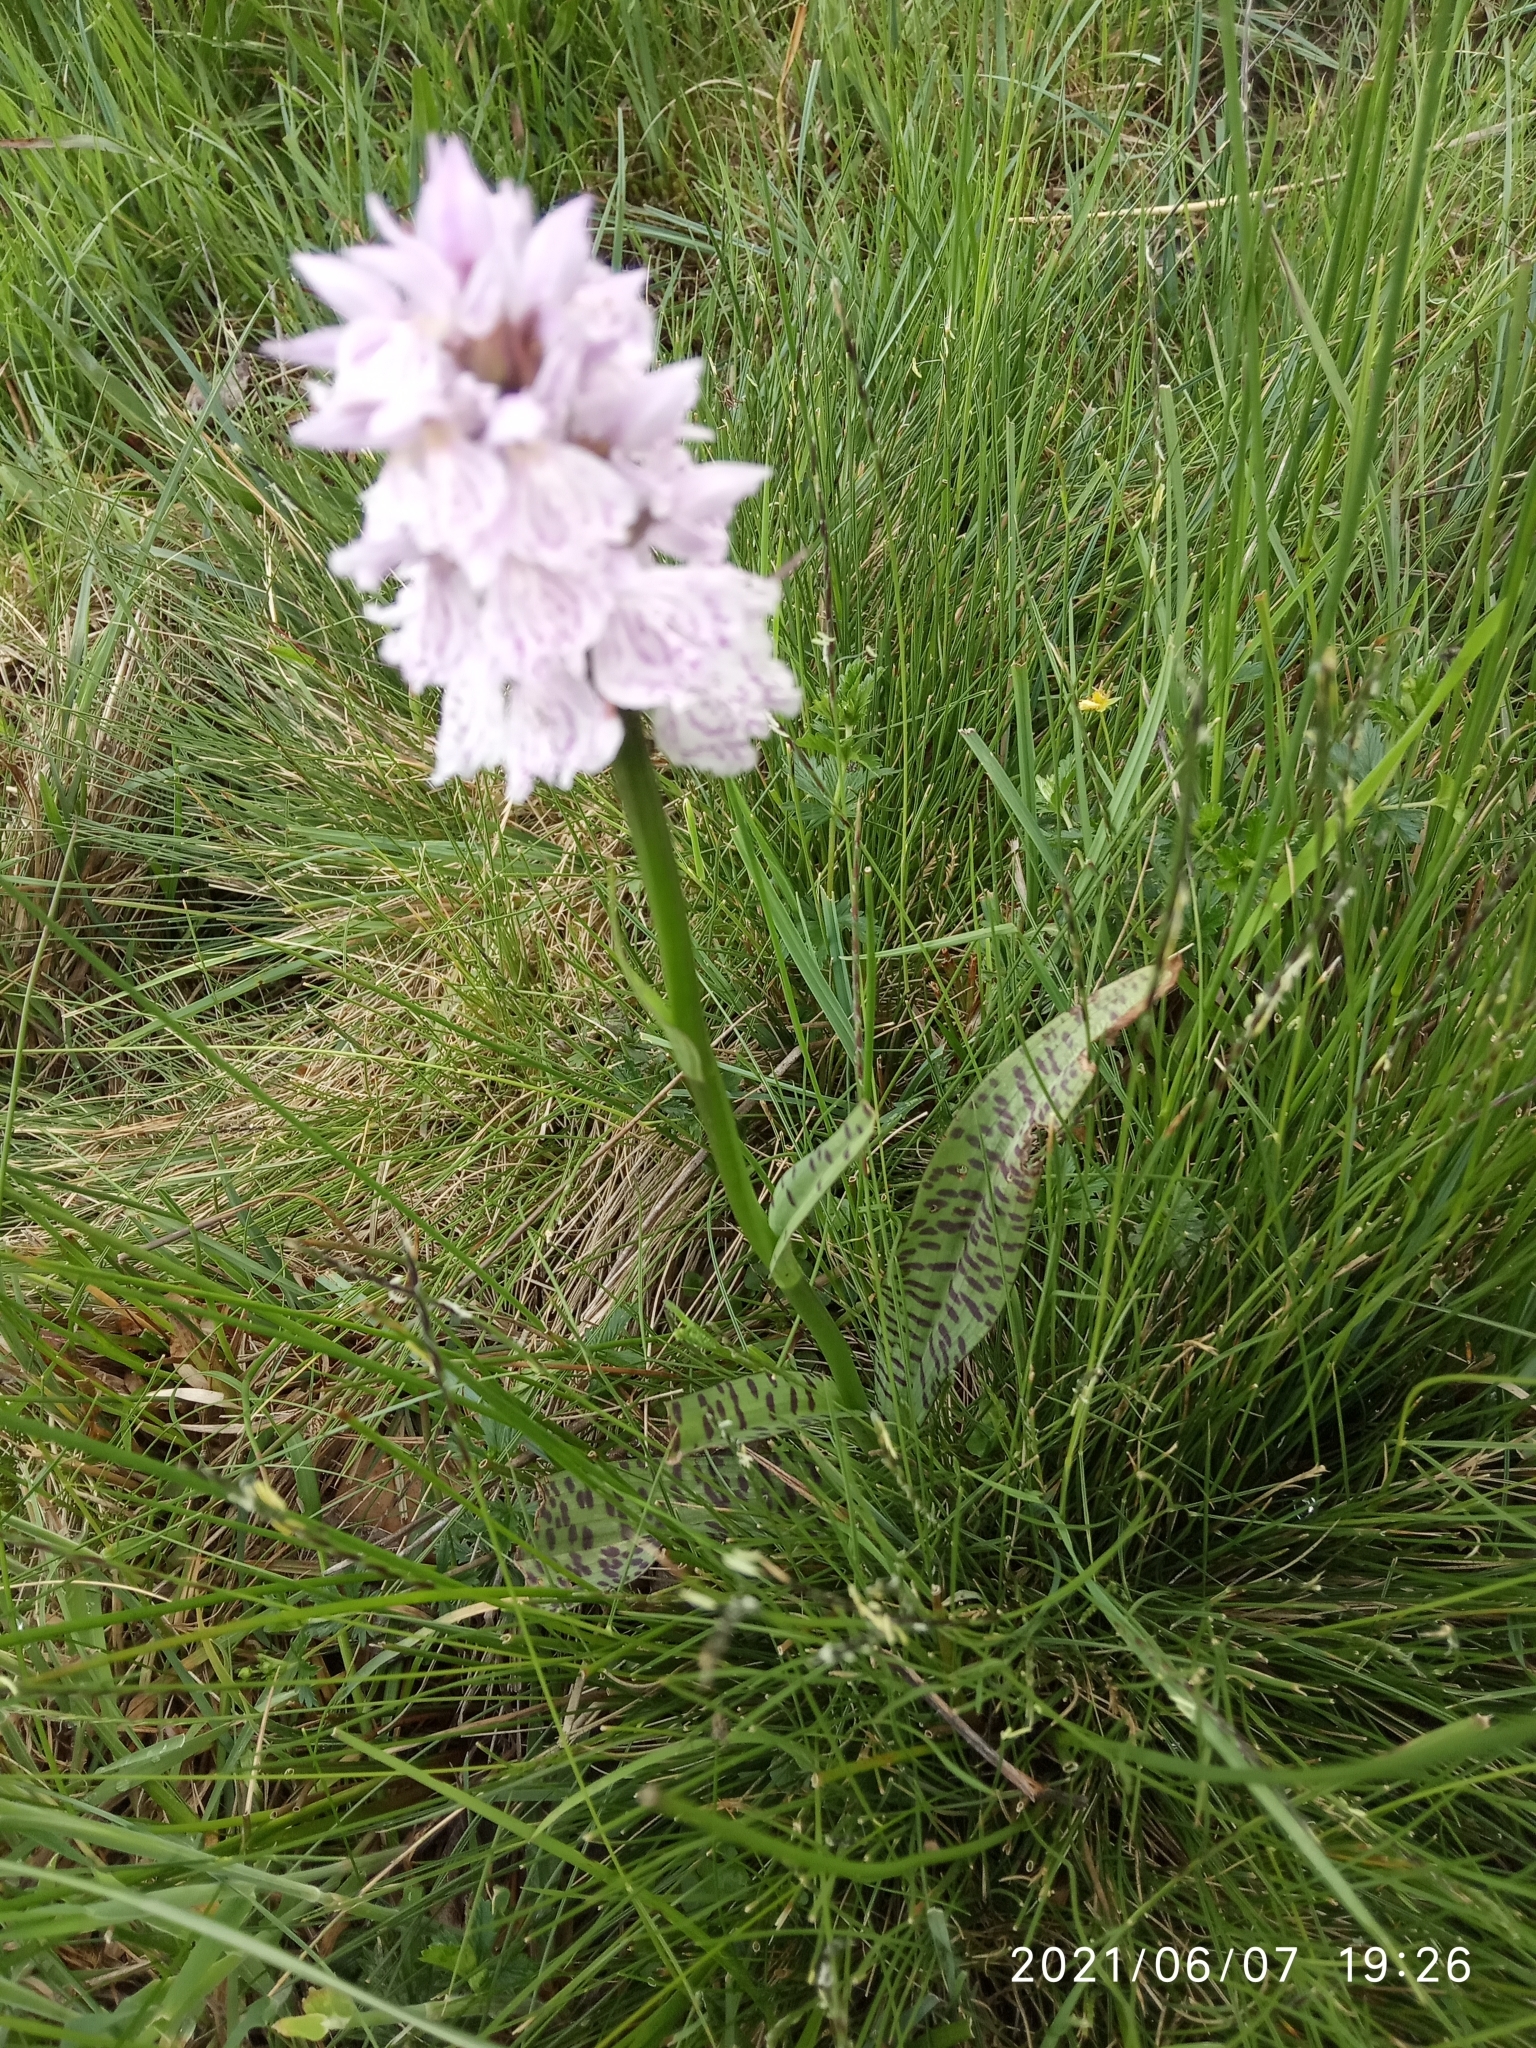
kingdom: Plantae
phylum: Tracheophyta
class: Liliopsida
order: Asparagales
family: Orchidaceae
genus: Dactylorhiza
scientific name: Dactylorhiza maculata
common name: Heath spotted-orchid
